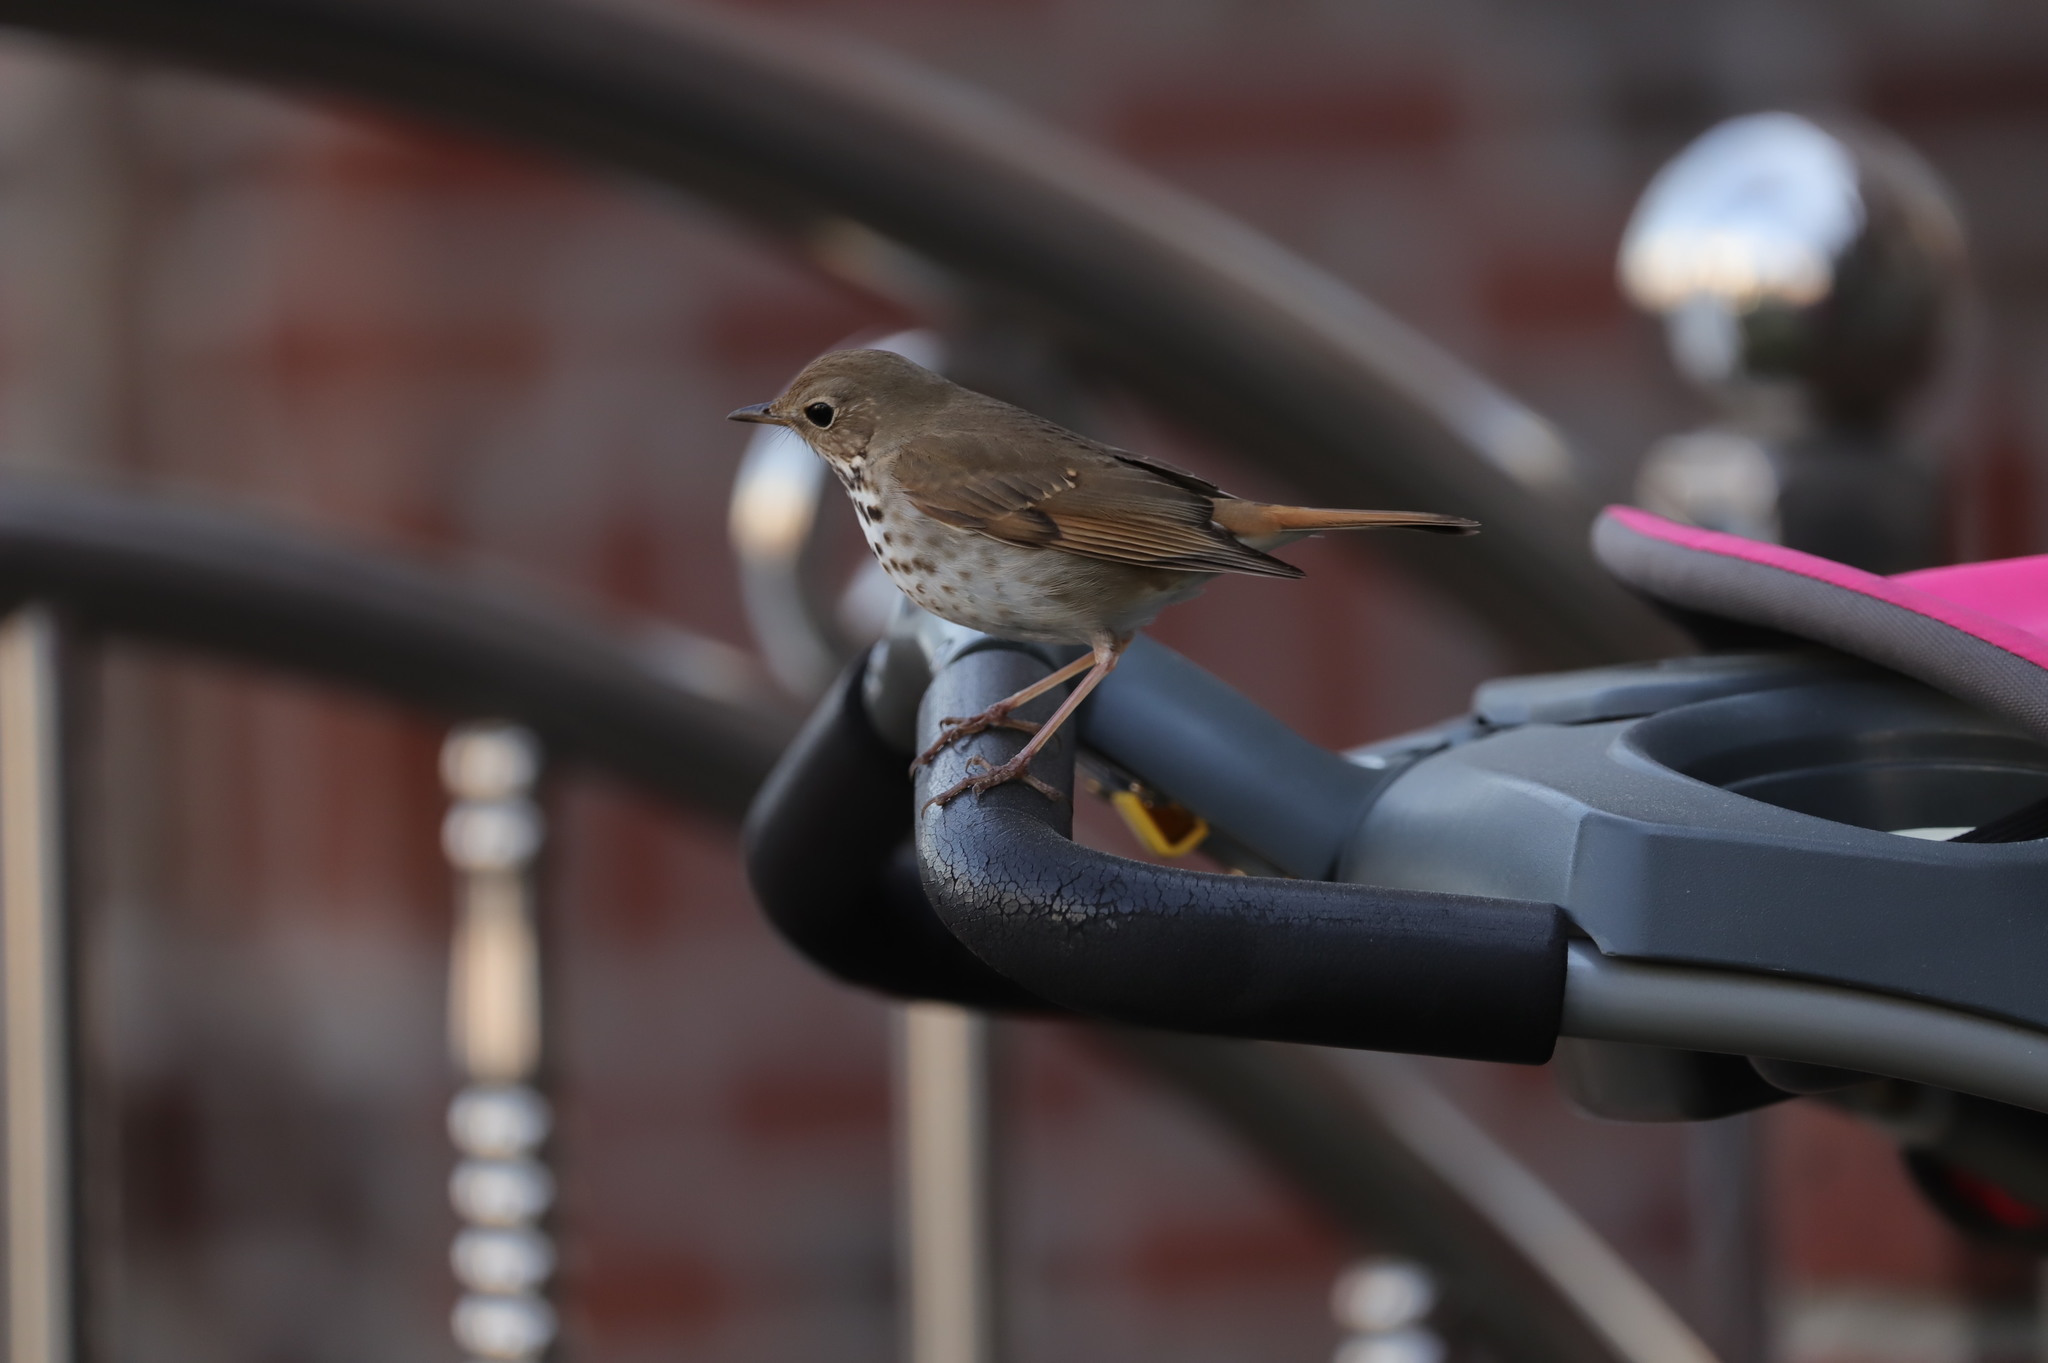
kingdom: Animalia
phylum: Chordata
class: Aves
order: Passeriformes
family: Turdidae
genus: Catharus
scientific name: Catharus guttatus
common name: Hermit thrush
